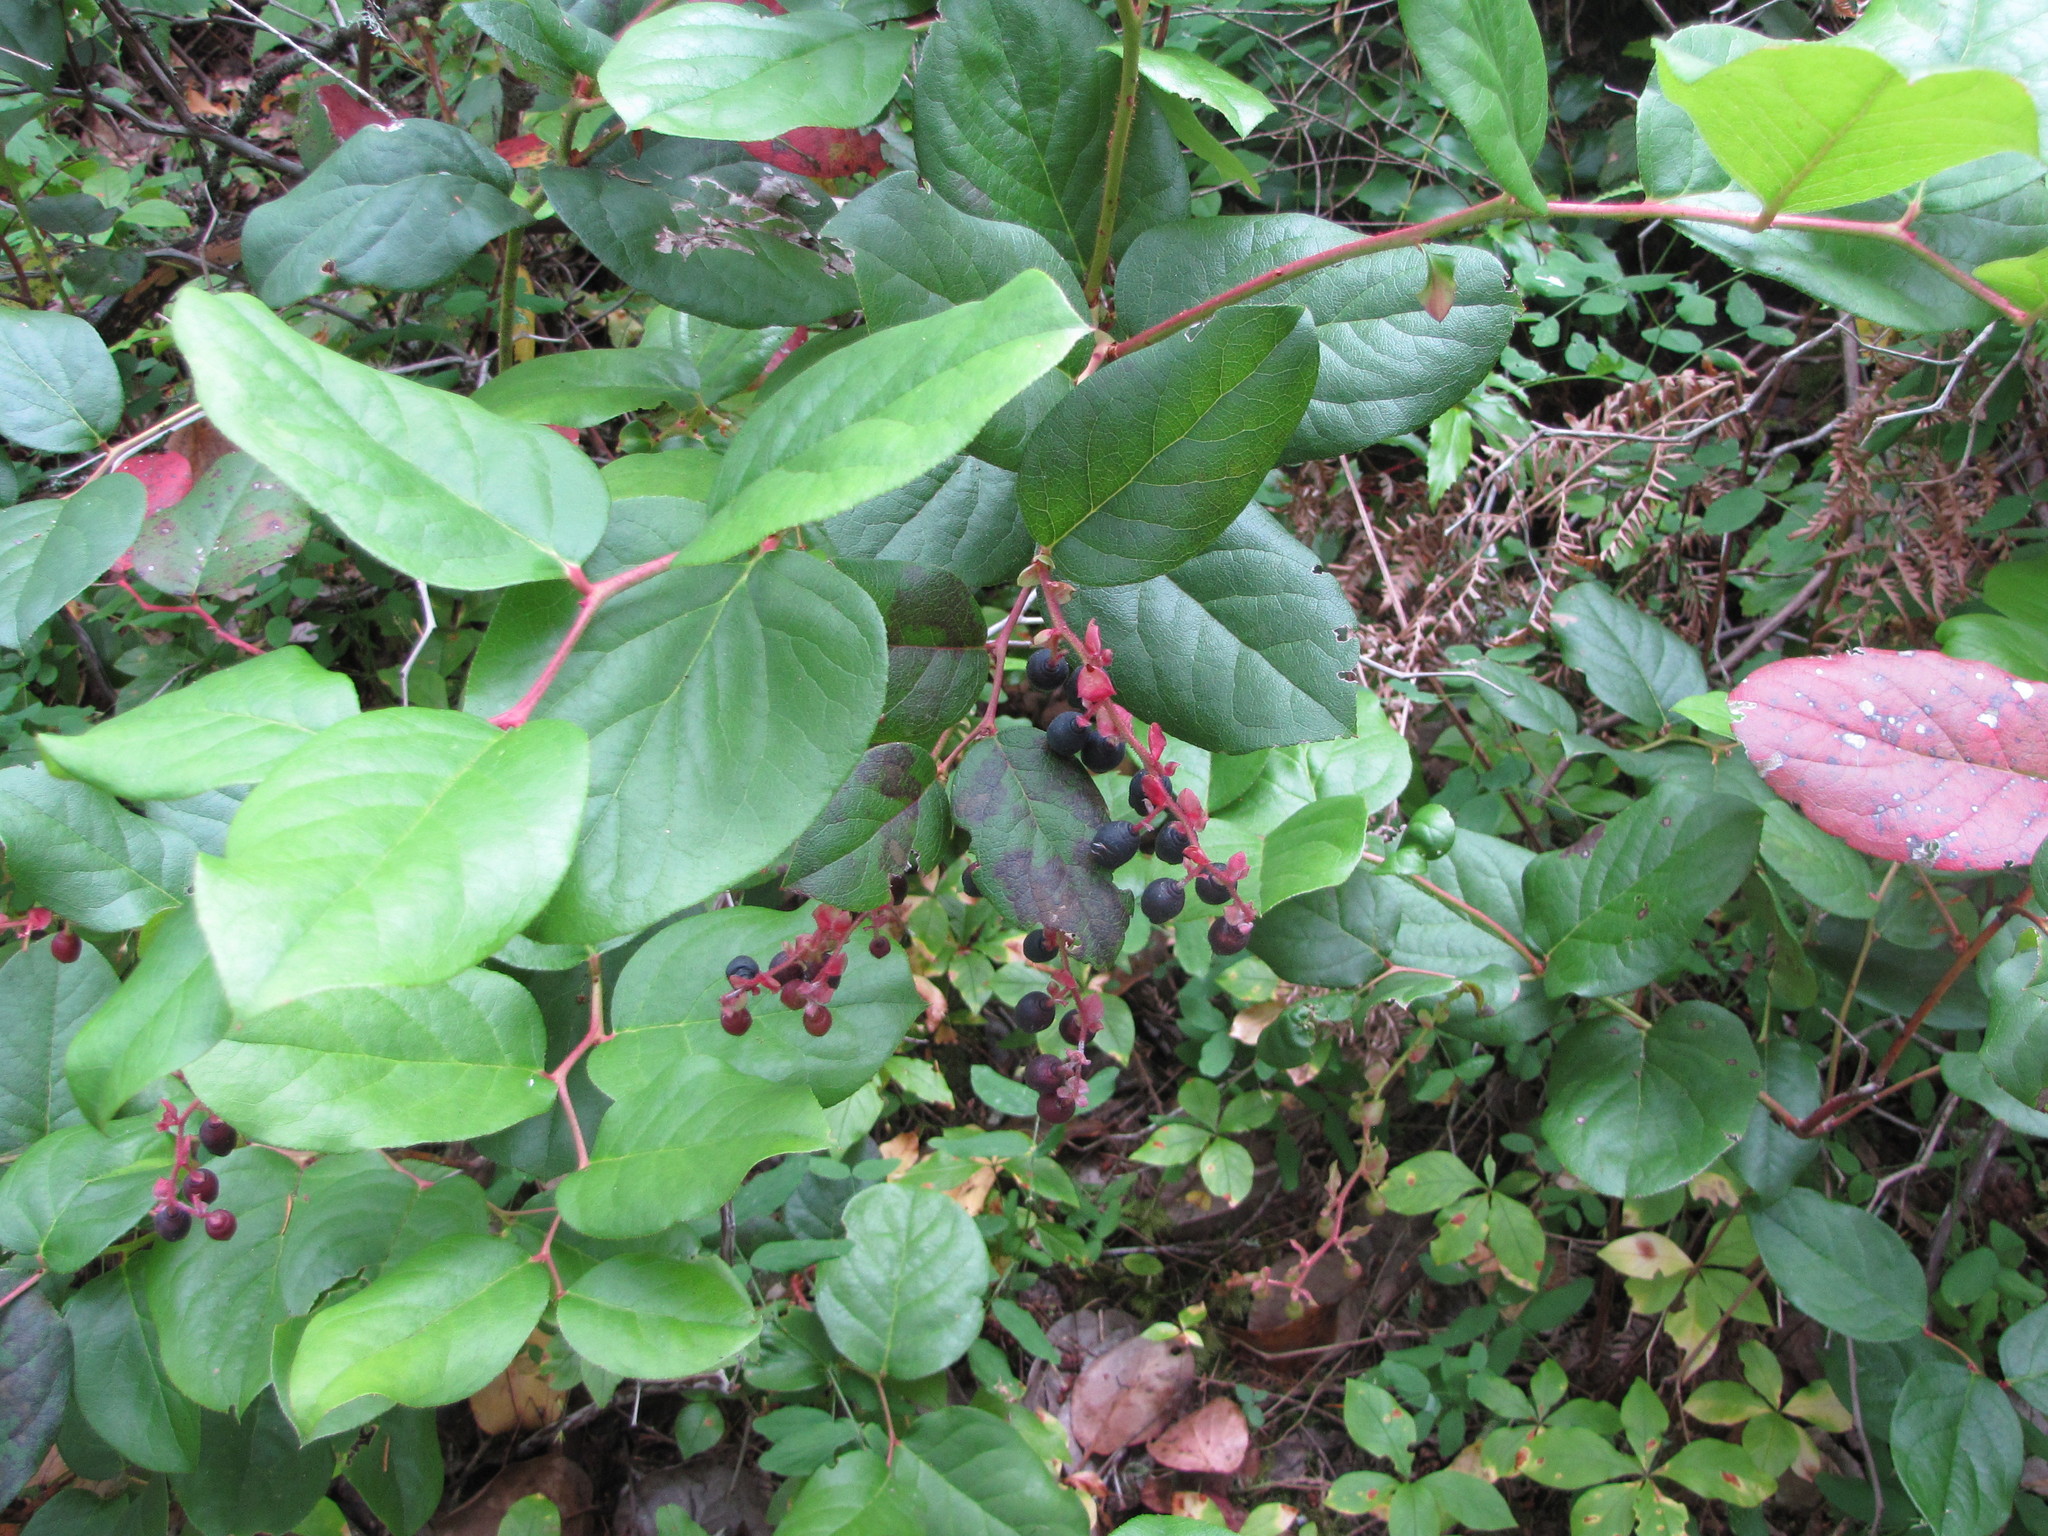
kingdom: Plantae
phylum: Tracheophyta
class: Magnoliopsida
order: Ericales
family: Ericaceae
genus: Gaultheria
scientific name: Gaultheria shallon
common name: Shallon
